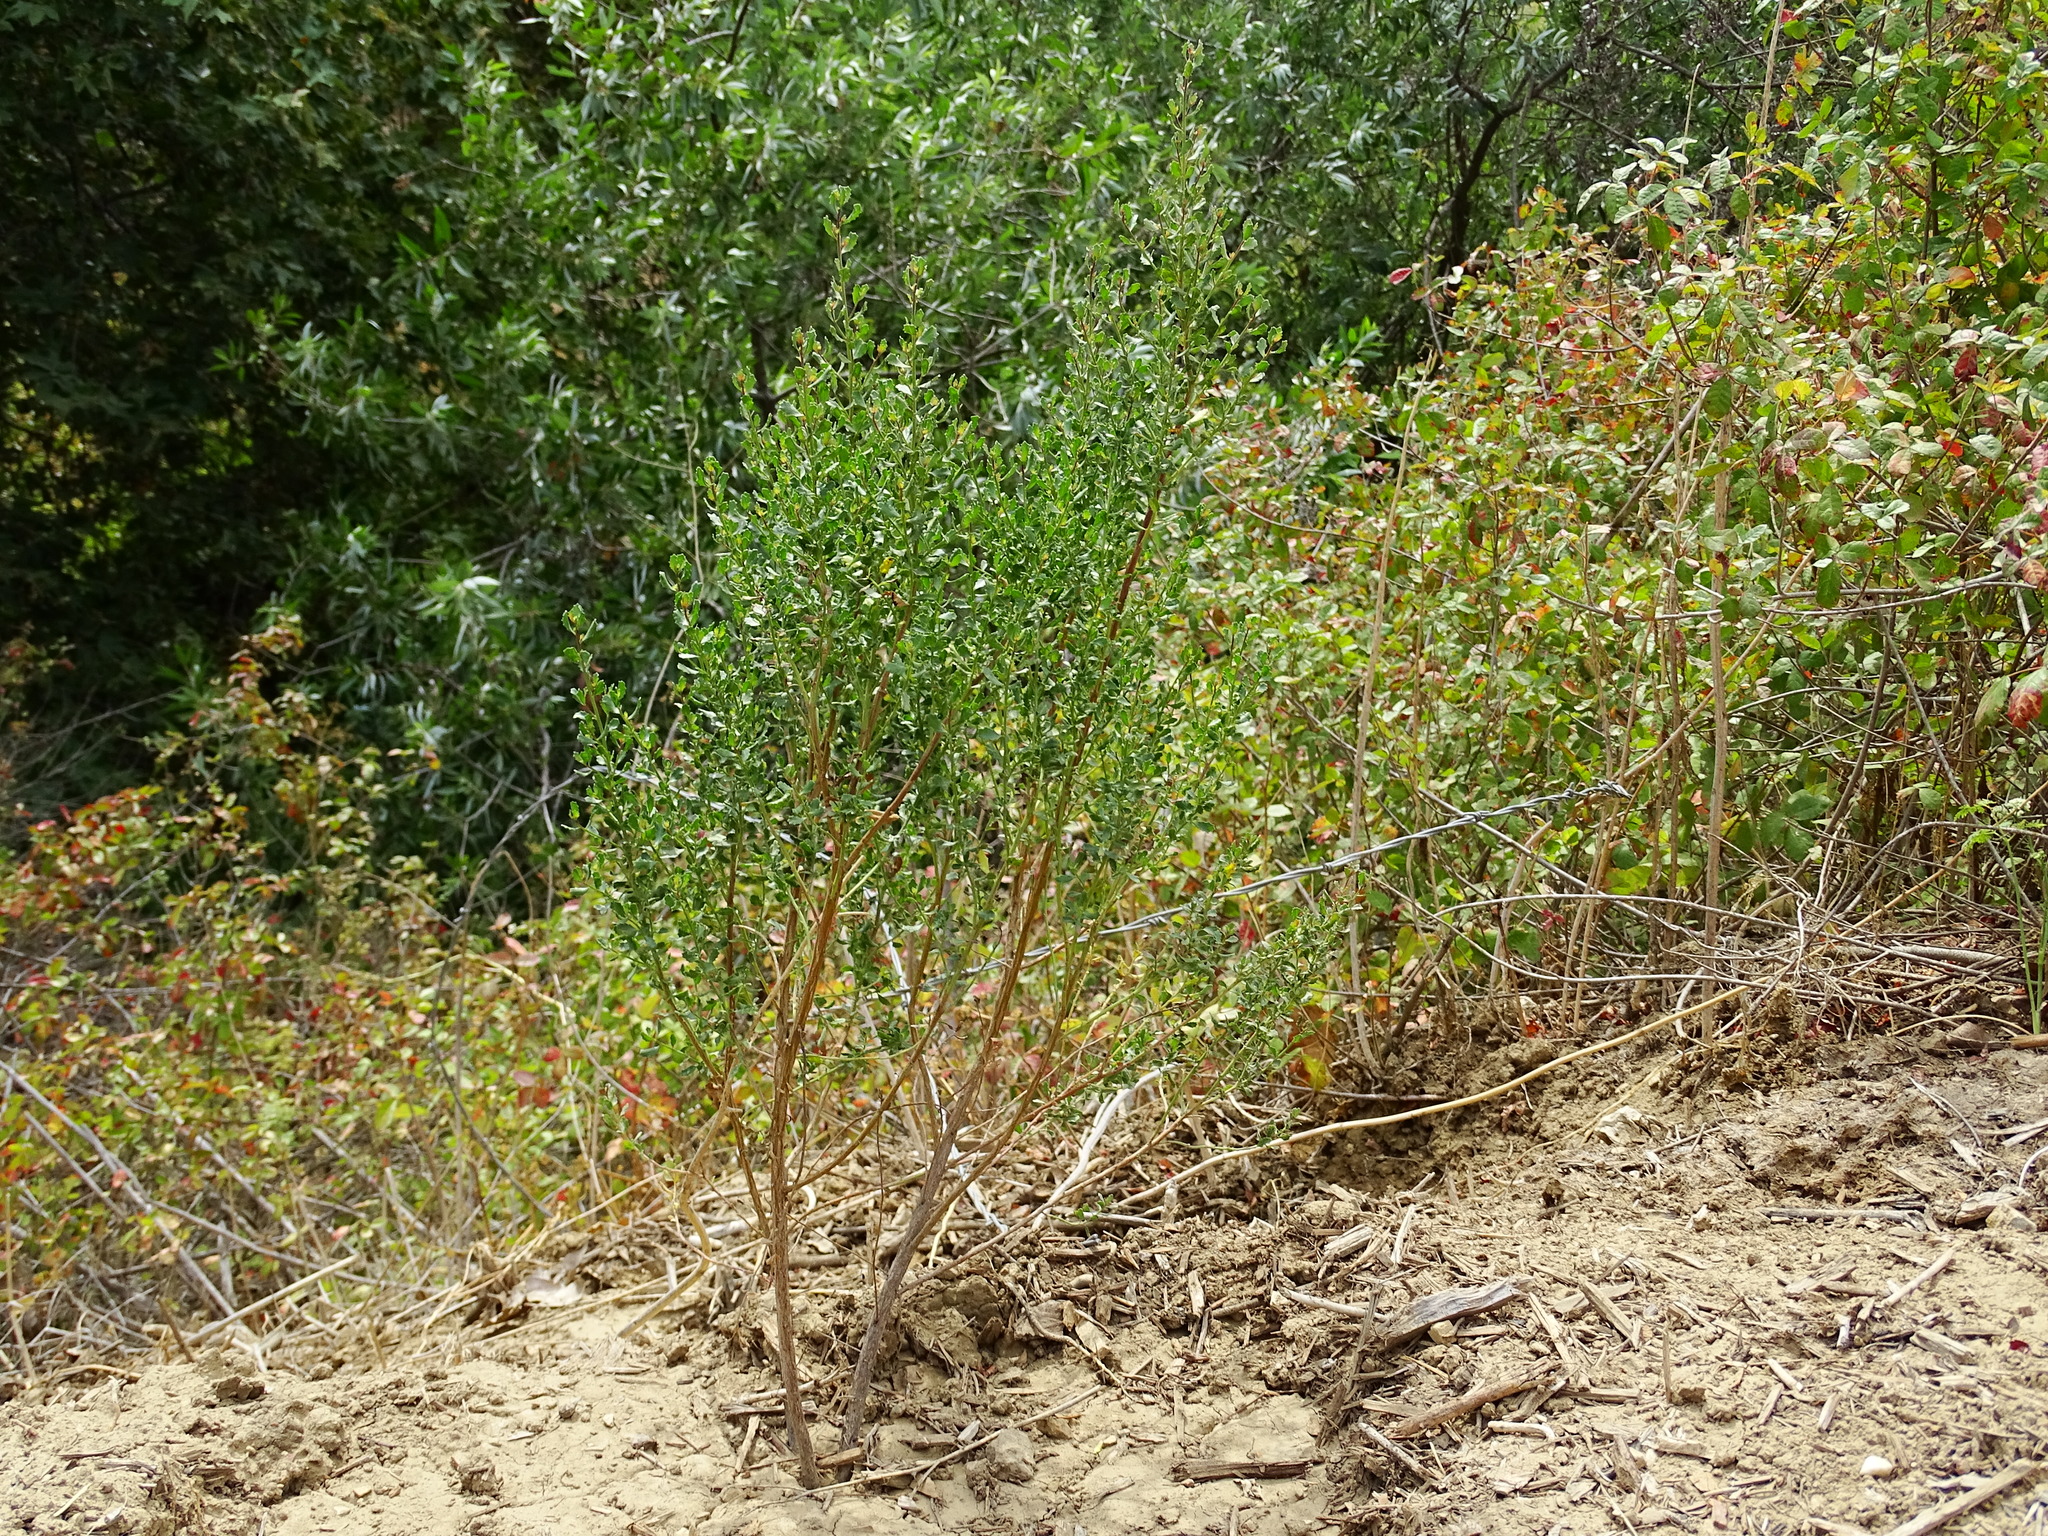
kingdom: Plantae
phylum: Tracheophyta
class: Magnoliopsida
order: Asterales
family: Asteraceae
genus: Baccharis
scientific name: Baccharis pilularis
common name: Coyotebrush
